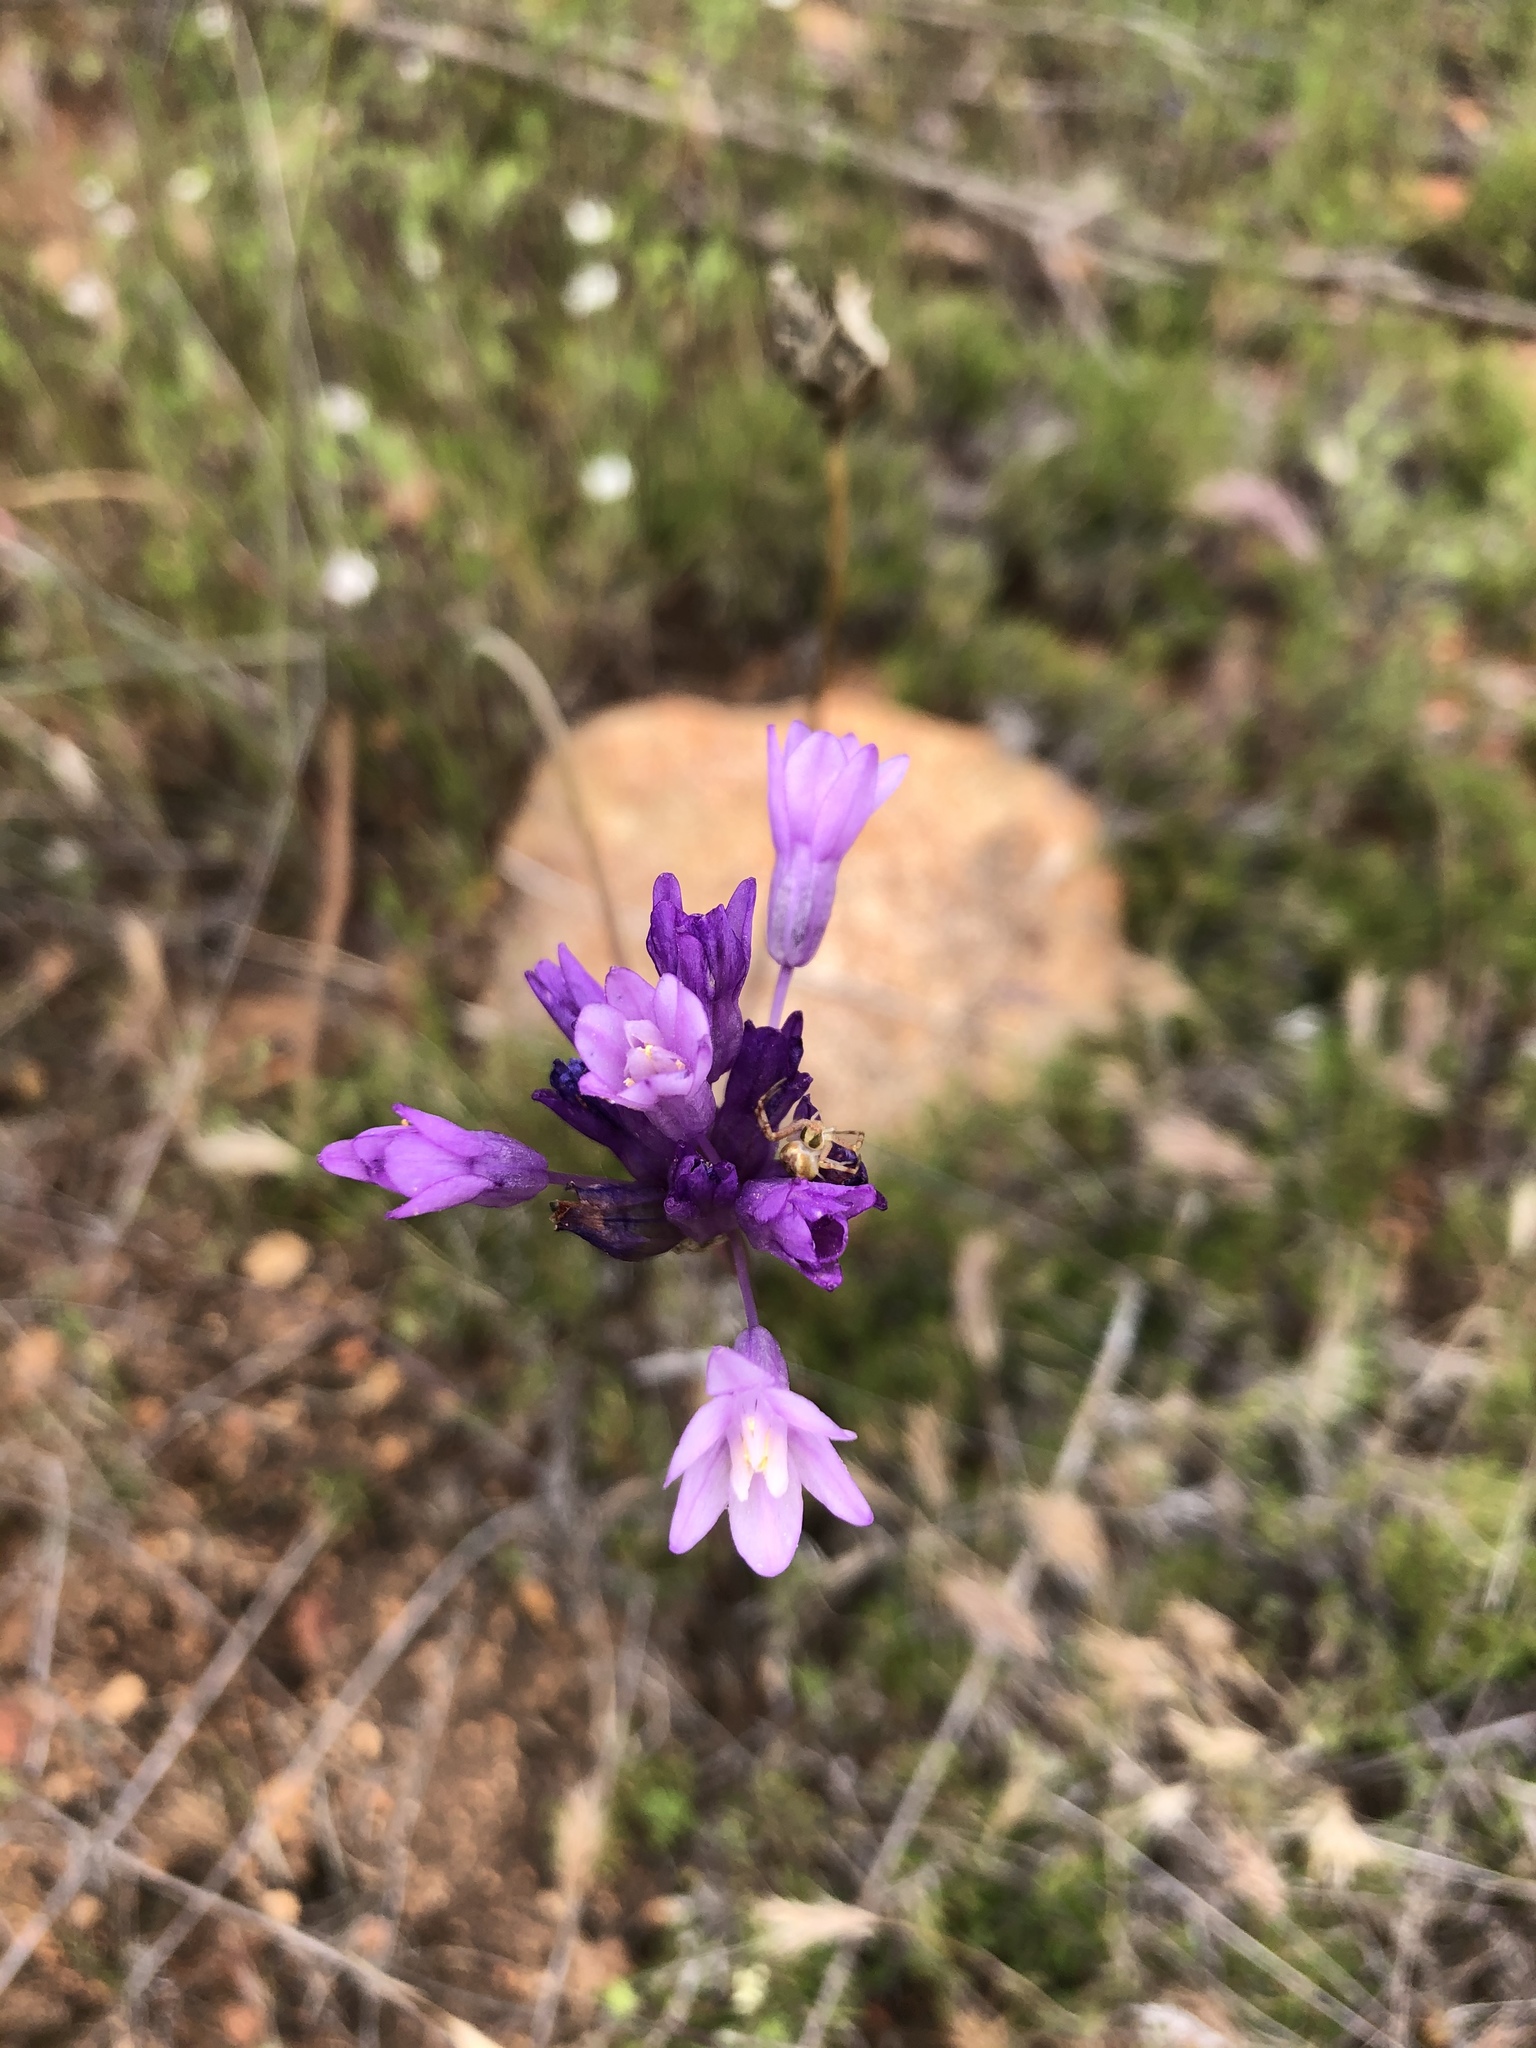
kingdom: Plantae
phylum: Tracheophyta
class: Liliopsida
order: Asparagales
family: Asparagaceae
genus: Dipterostemon
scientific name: Dipterostemon capitatus
